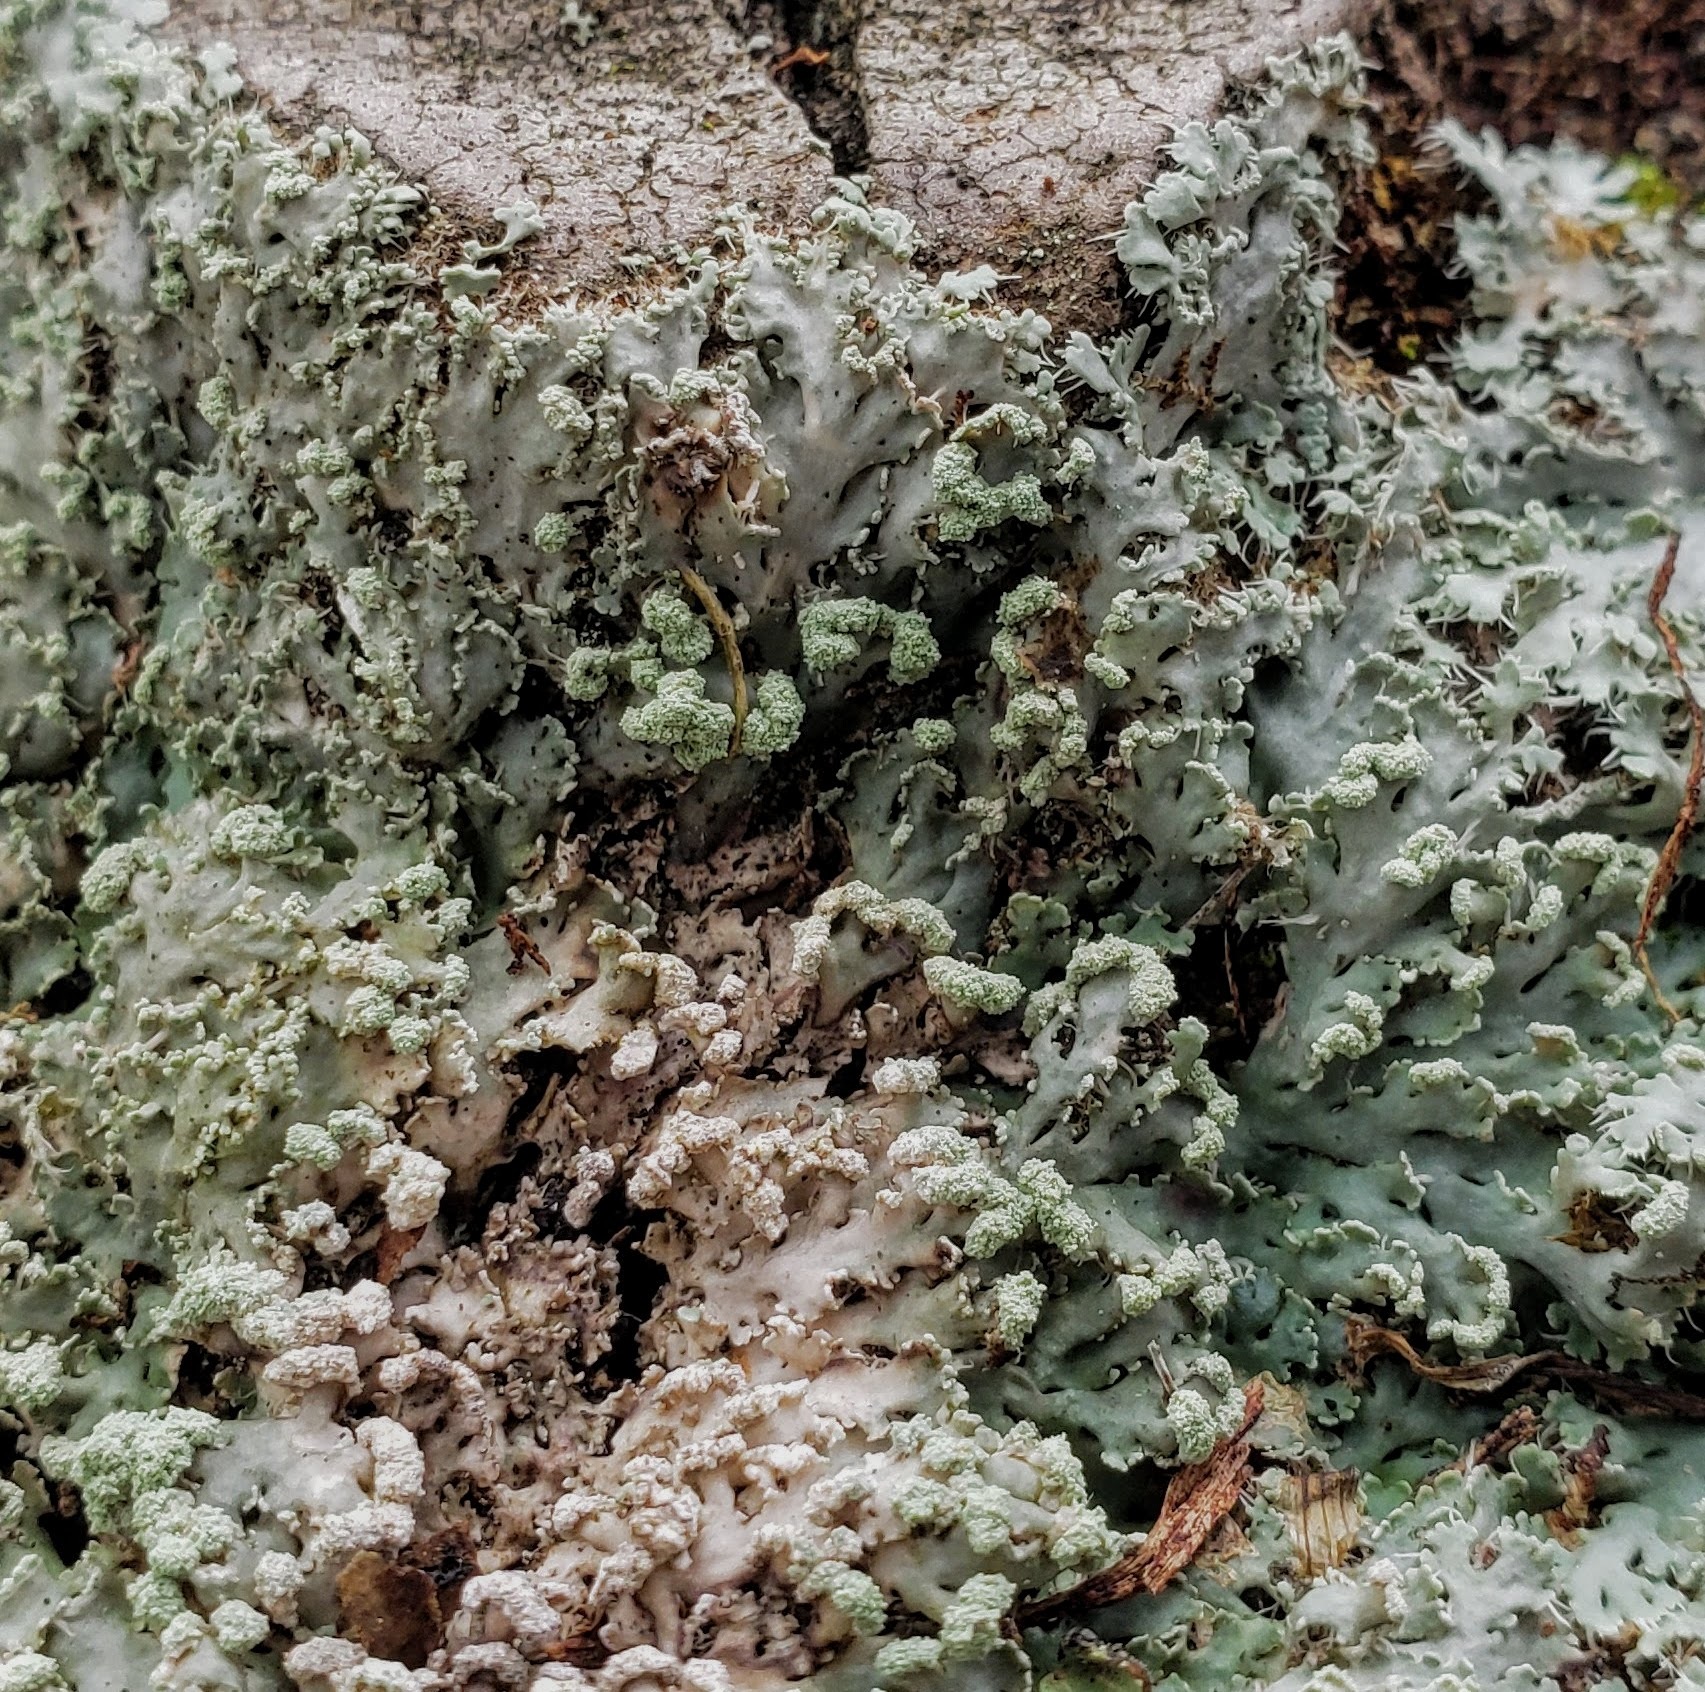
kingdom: Fungi
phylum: Ascomycota
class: Lecanoromycetes
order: Caliciales
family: Physciaceae
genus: Heterodermia
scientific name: Heterodermia speciosa
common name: Powdered fringe lichen
